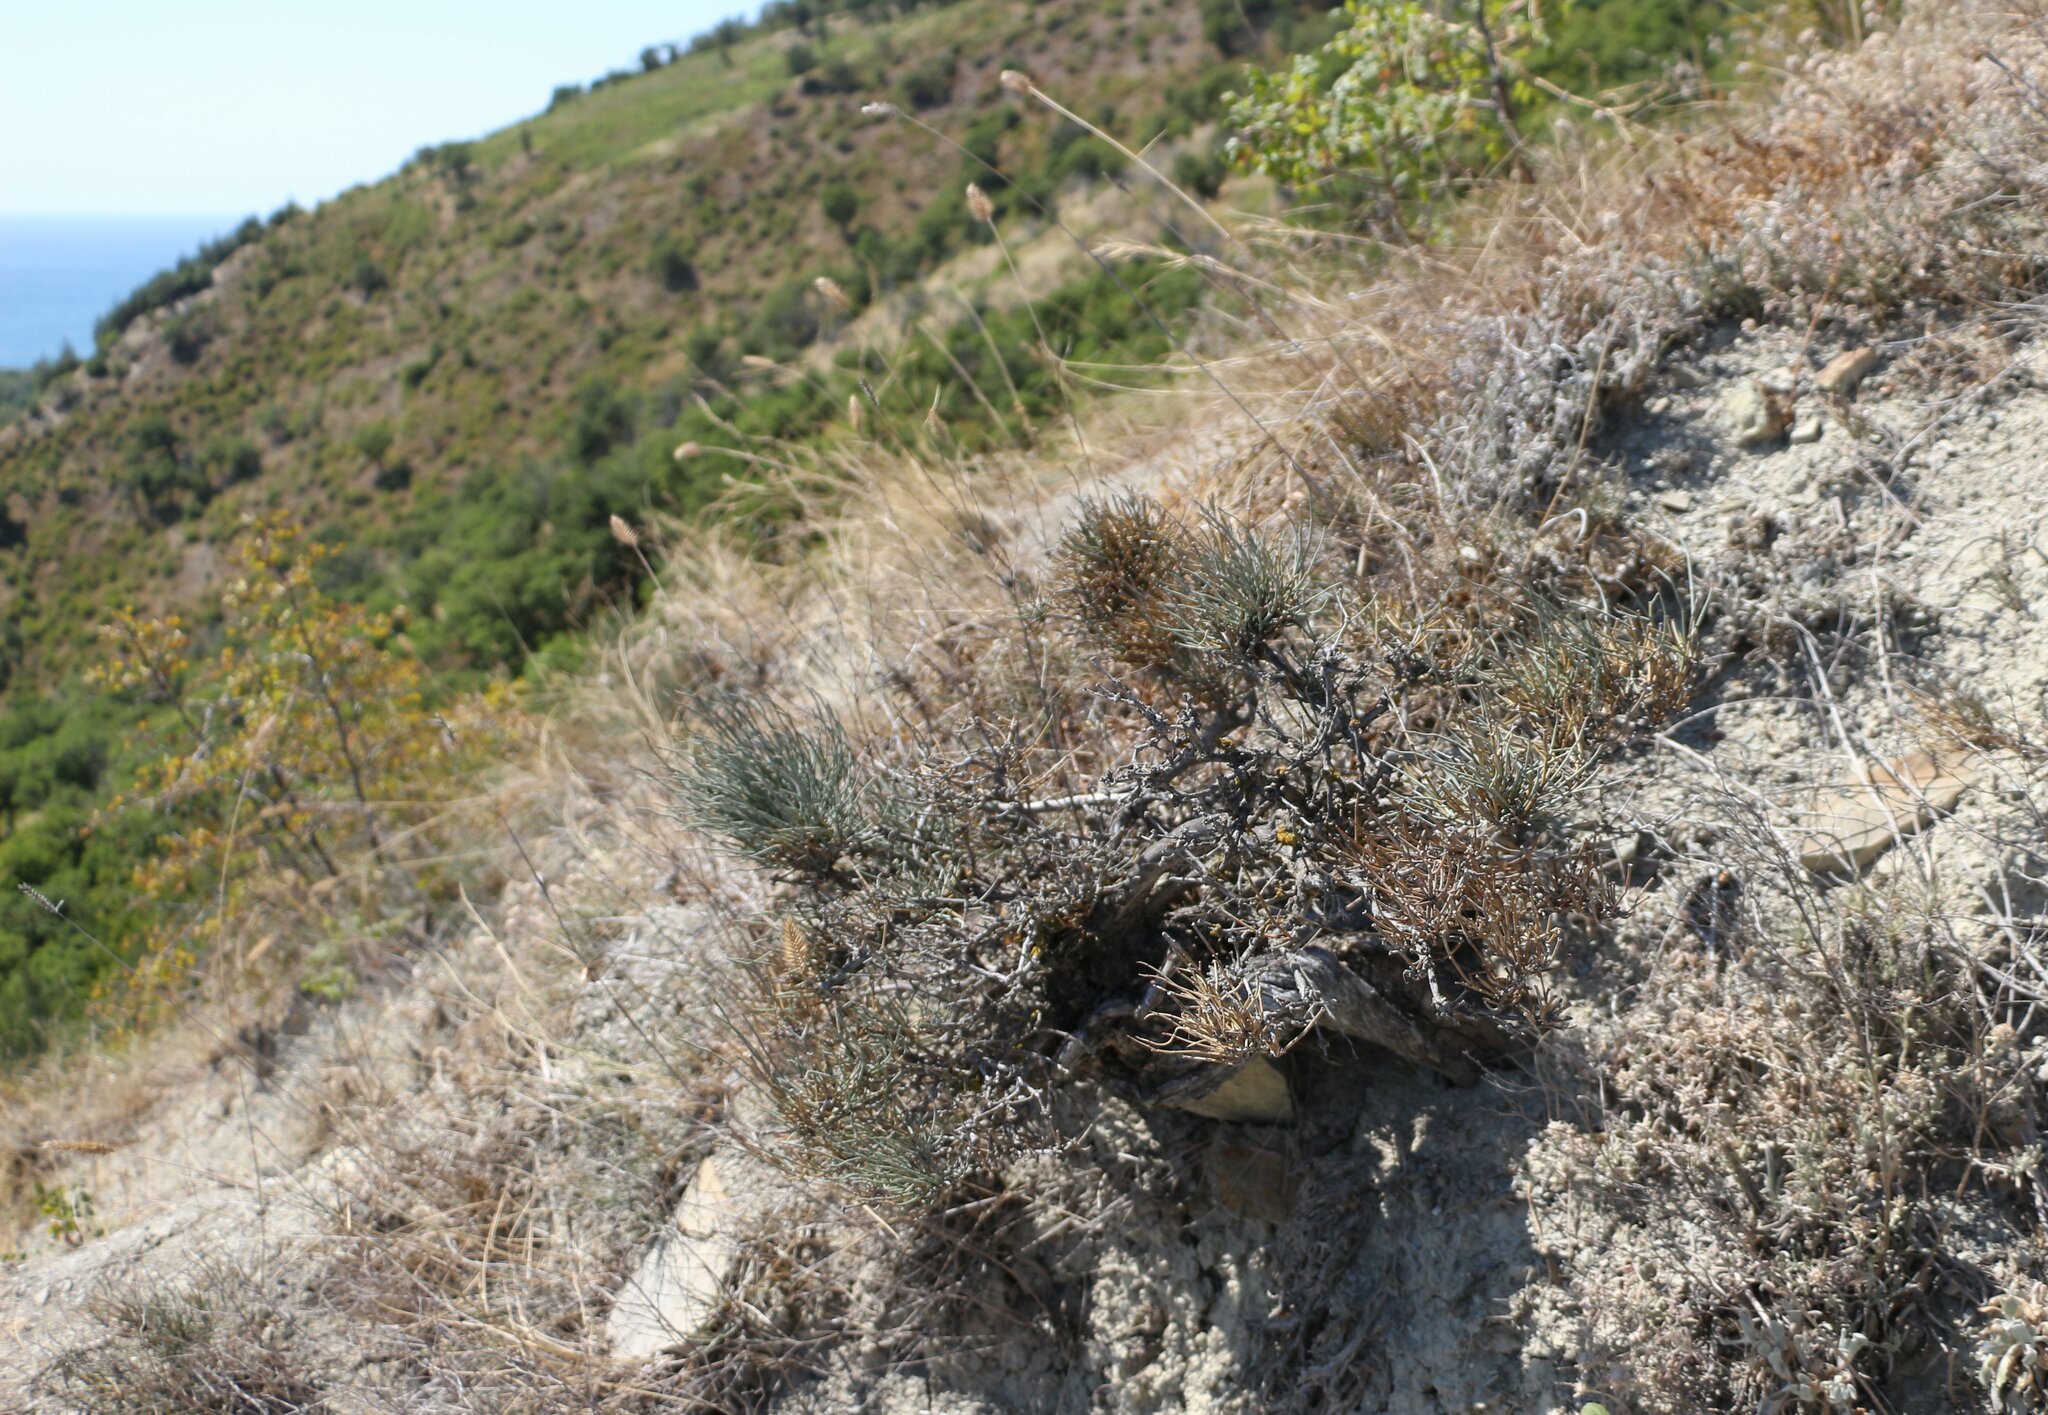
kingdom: Plantae
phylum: Tracheophyta
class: Gnetopsida
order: Ephedrales
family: Ephedraceae
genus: Ephedra
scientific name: Ephedra distachya
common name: Sea grape
